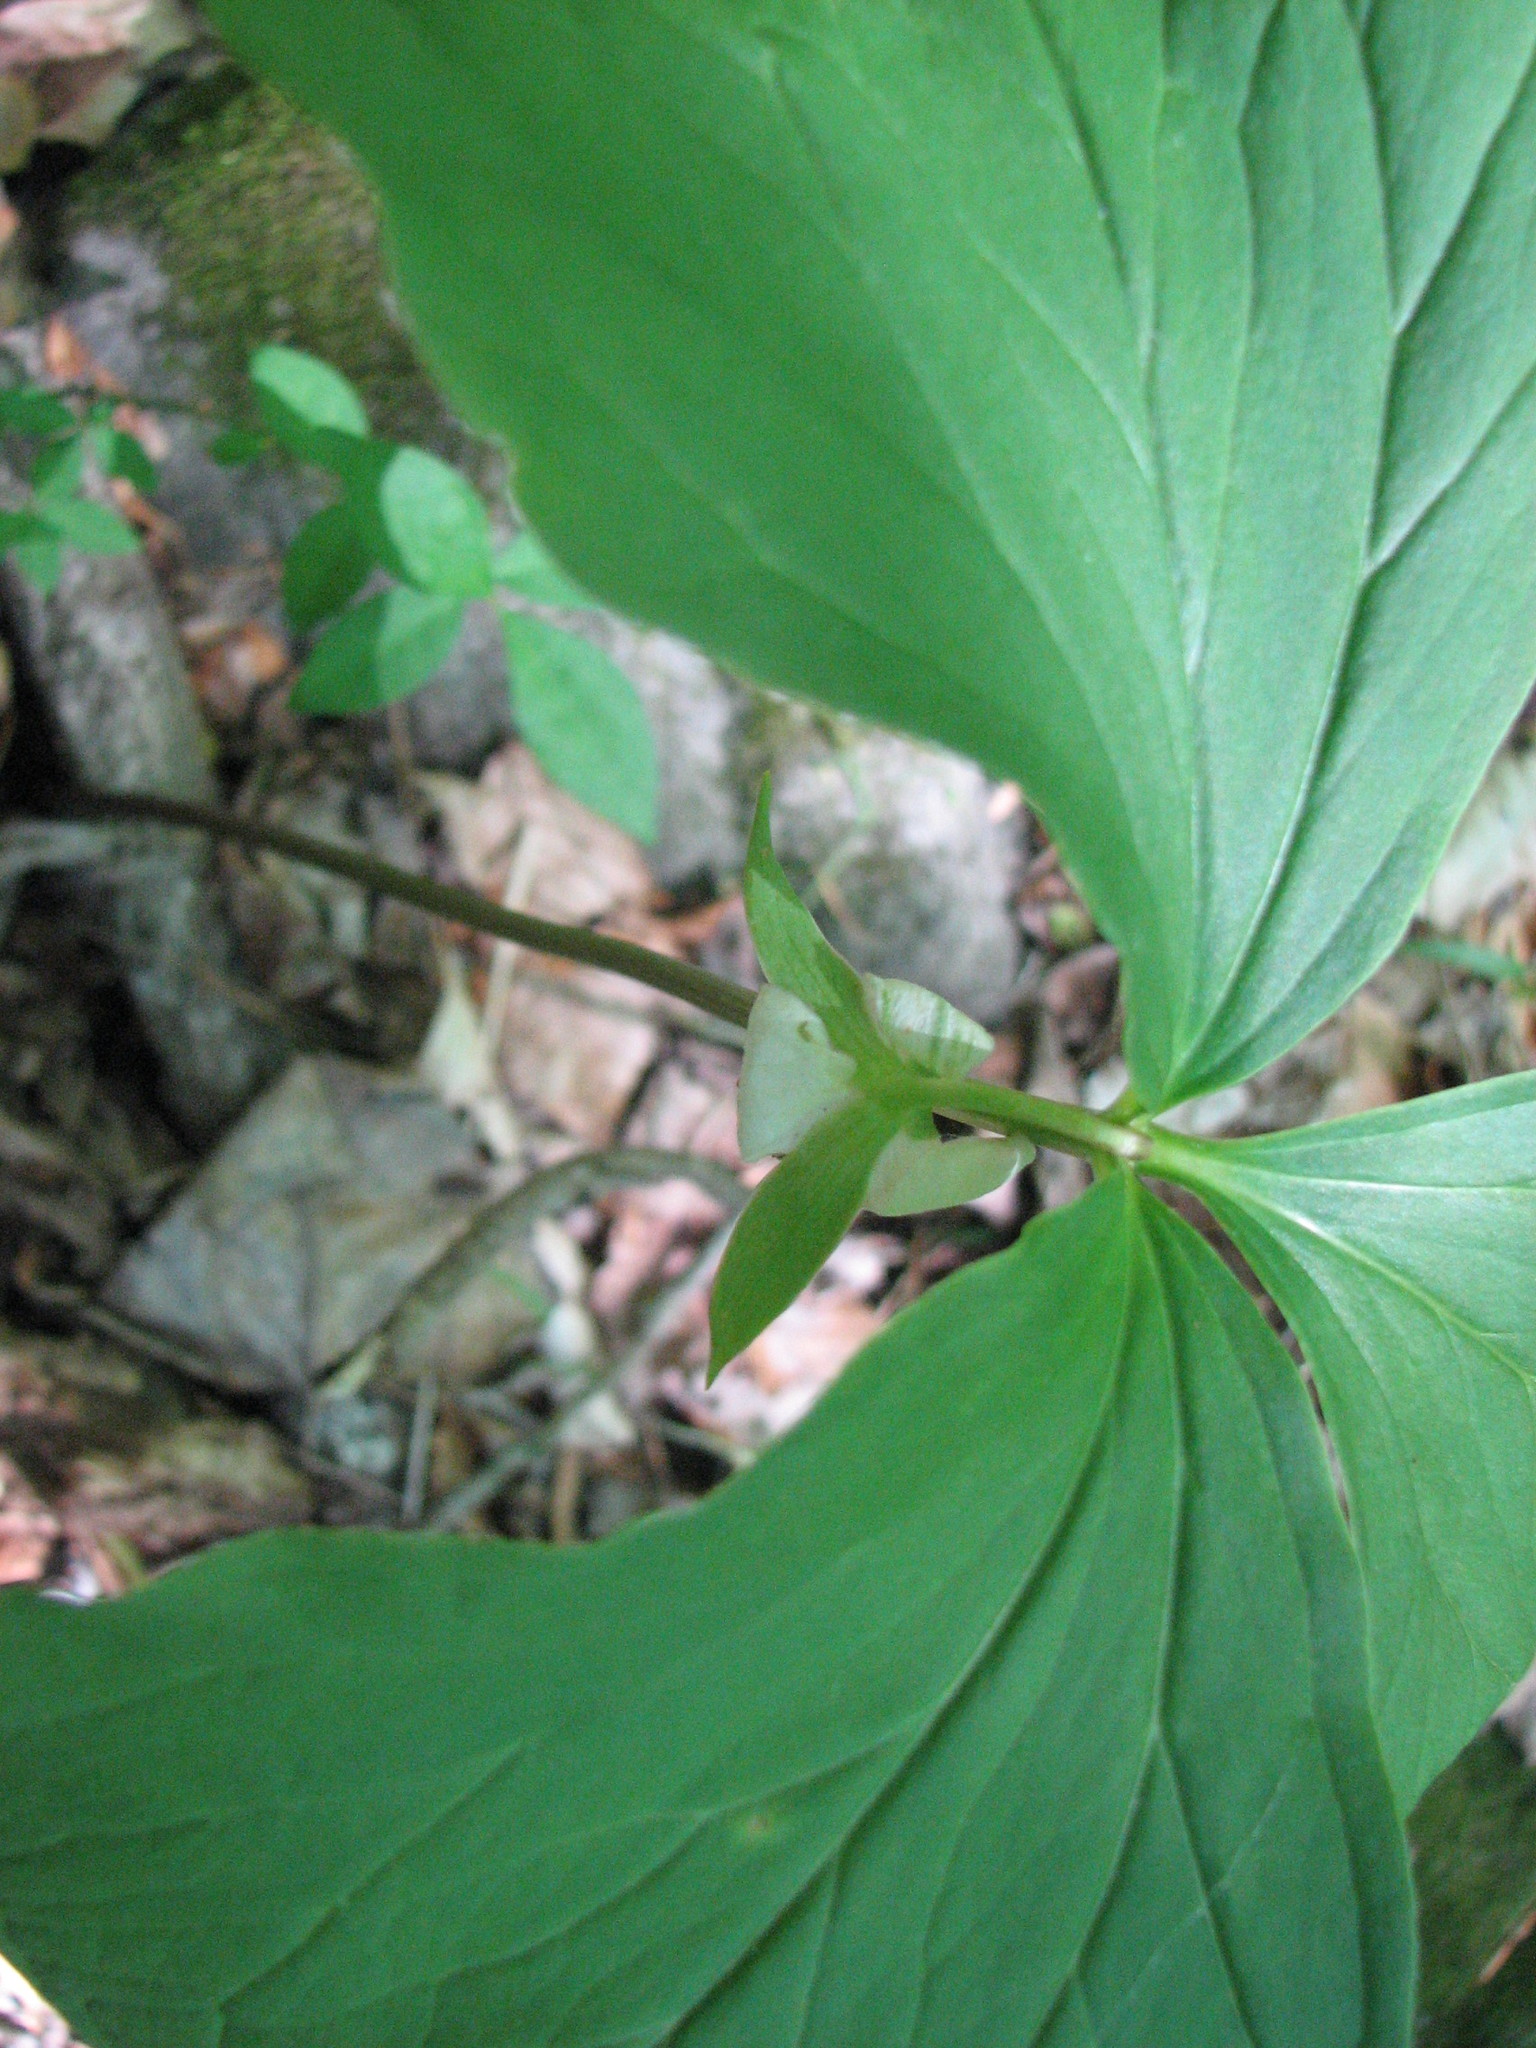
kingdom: Plantae
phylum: Tracheophyta
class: Liliopsida
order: Liliales
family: Melanthiaceae
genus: Trillium
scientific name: Trillium cernuum
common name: Nodding trillium
